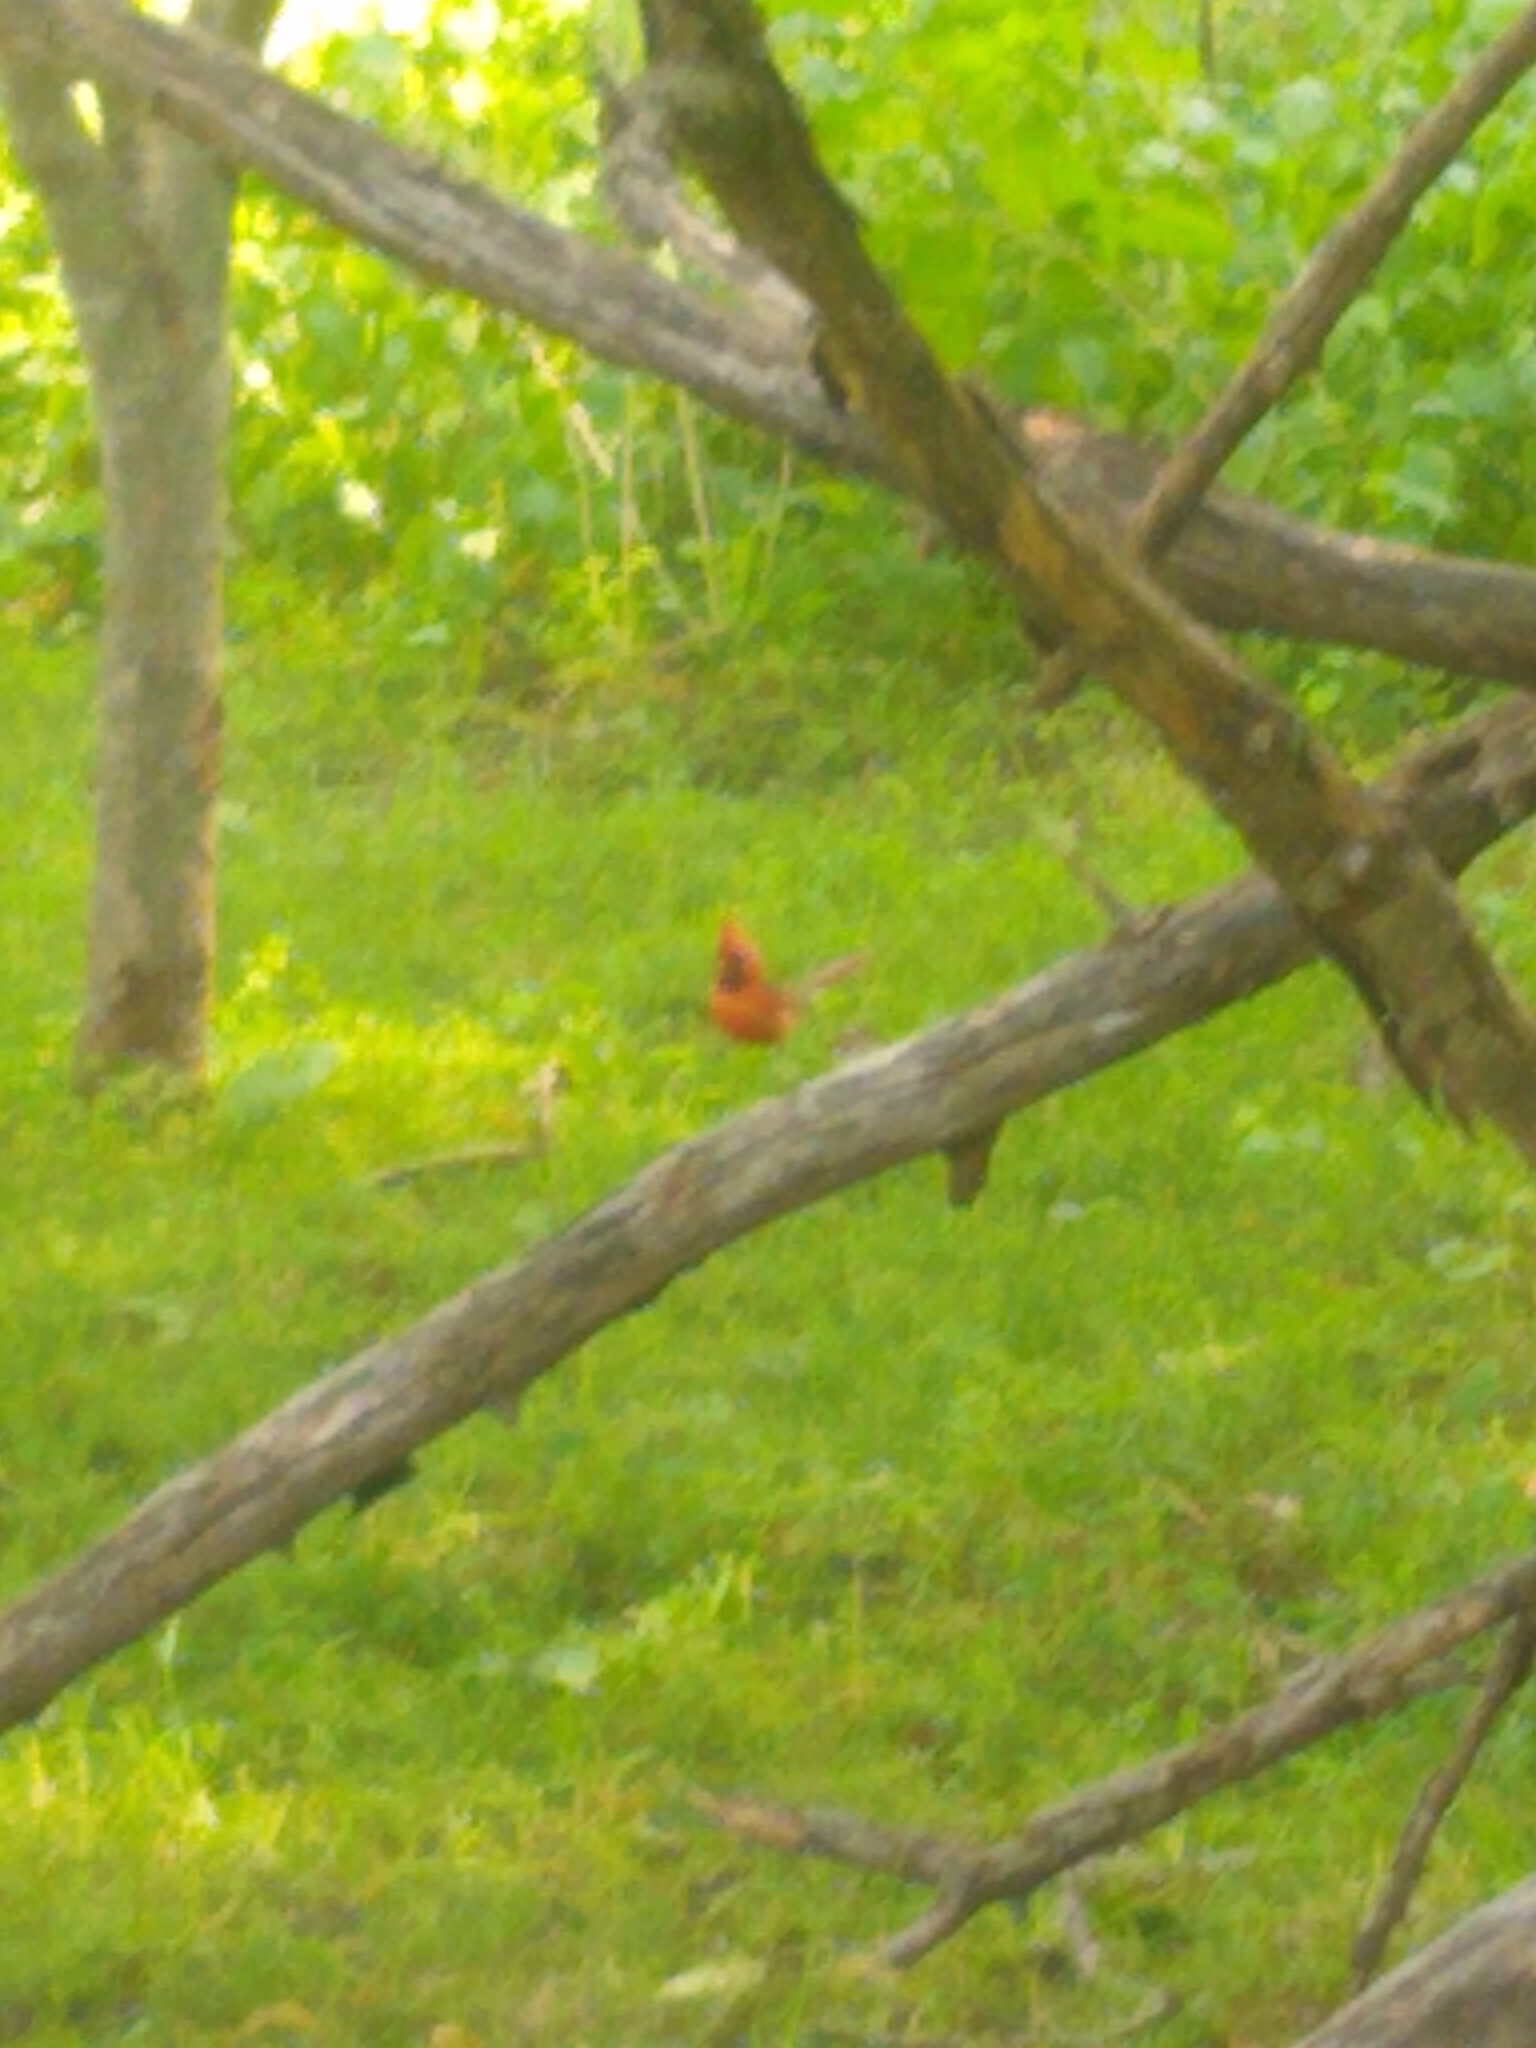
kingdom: Animalia
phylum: Chordata
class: Aves
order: Passeriformes
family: Cardinalidae
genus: Cardinalis
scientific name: Cardinalis cardinalis
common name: Northern cardinal
